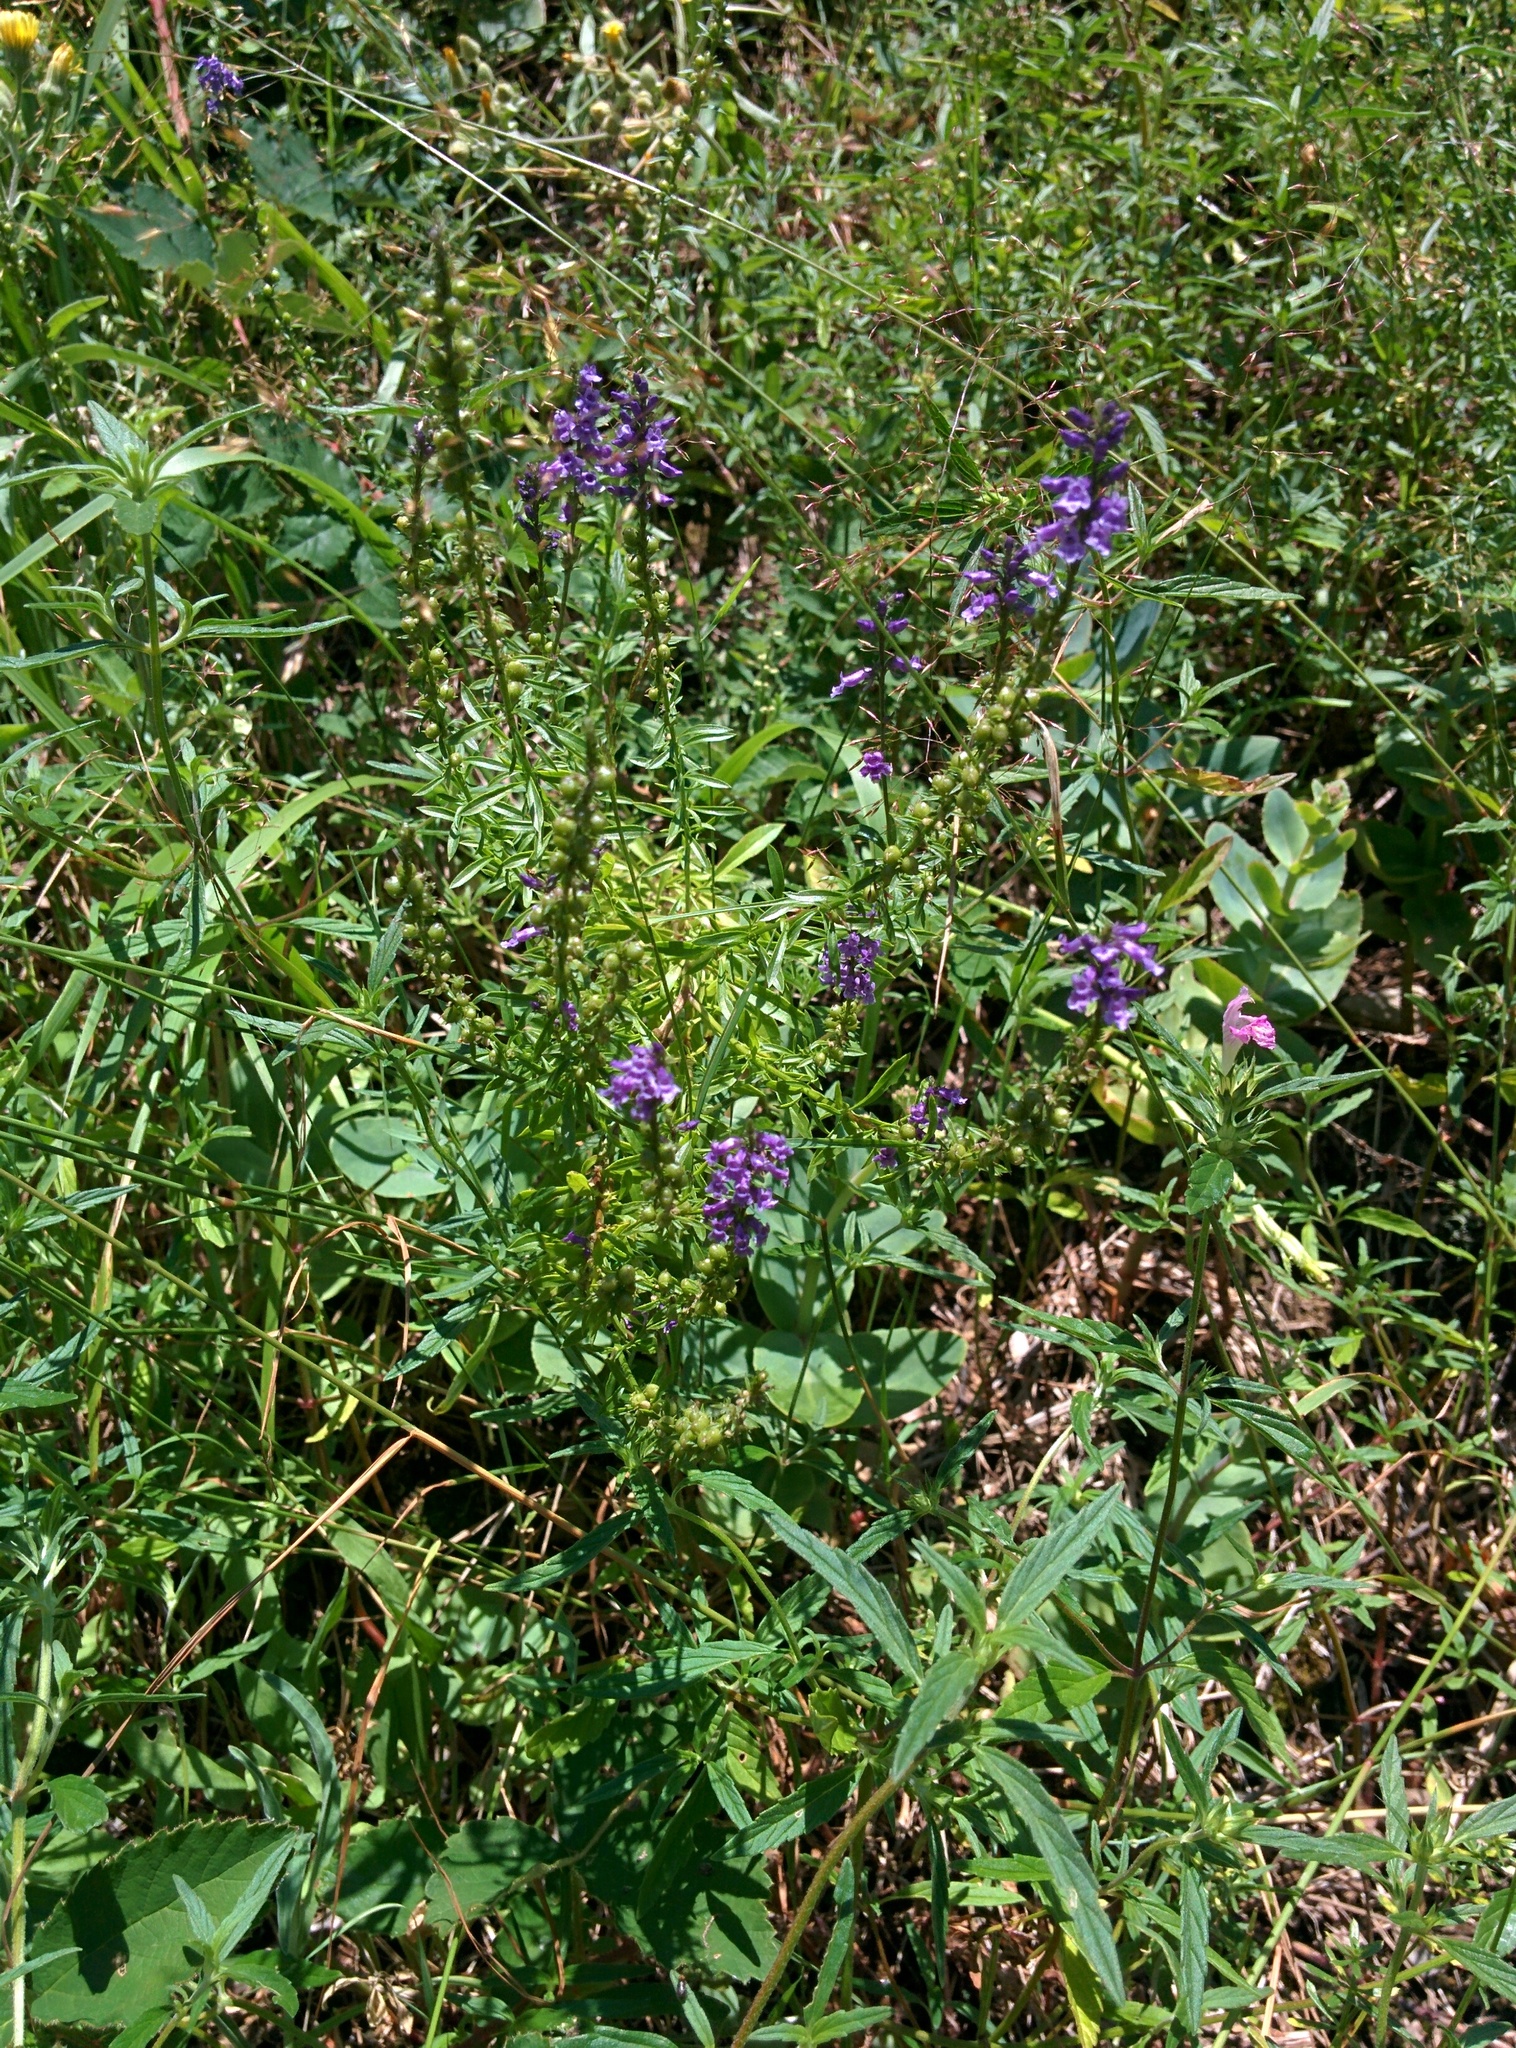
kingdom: Plantae
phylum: Tracheophyta
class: Magnoliopsida
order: Lamiales
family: Plantaginaceae
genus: Anarrhinum
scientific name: Anarrhinum bellidifolium
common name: Daisy-leaved toadflax
